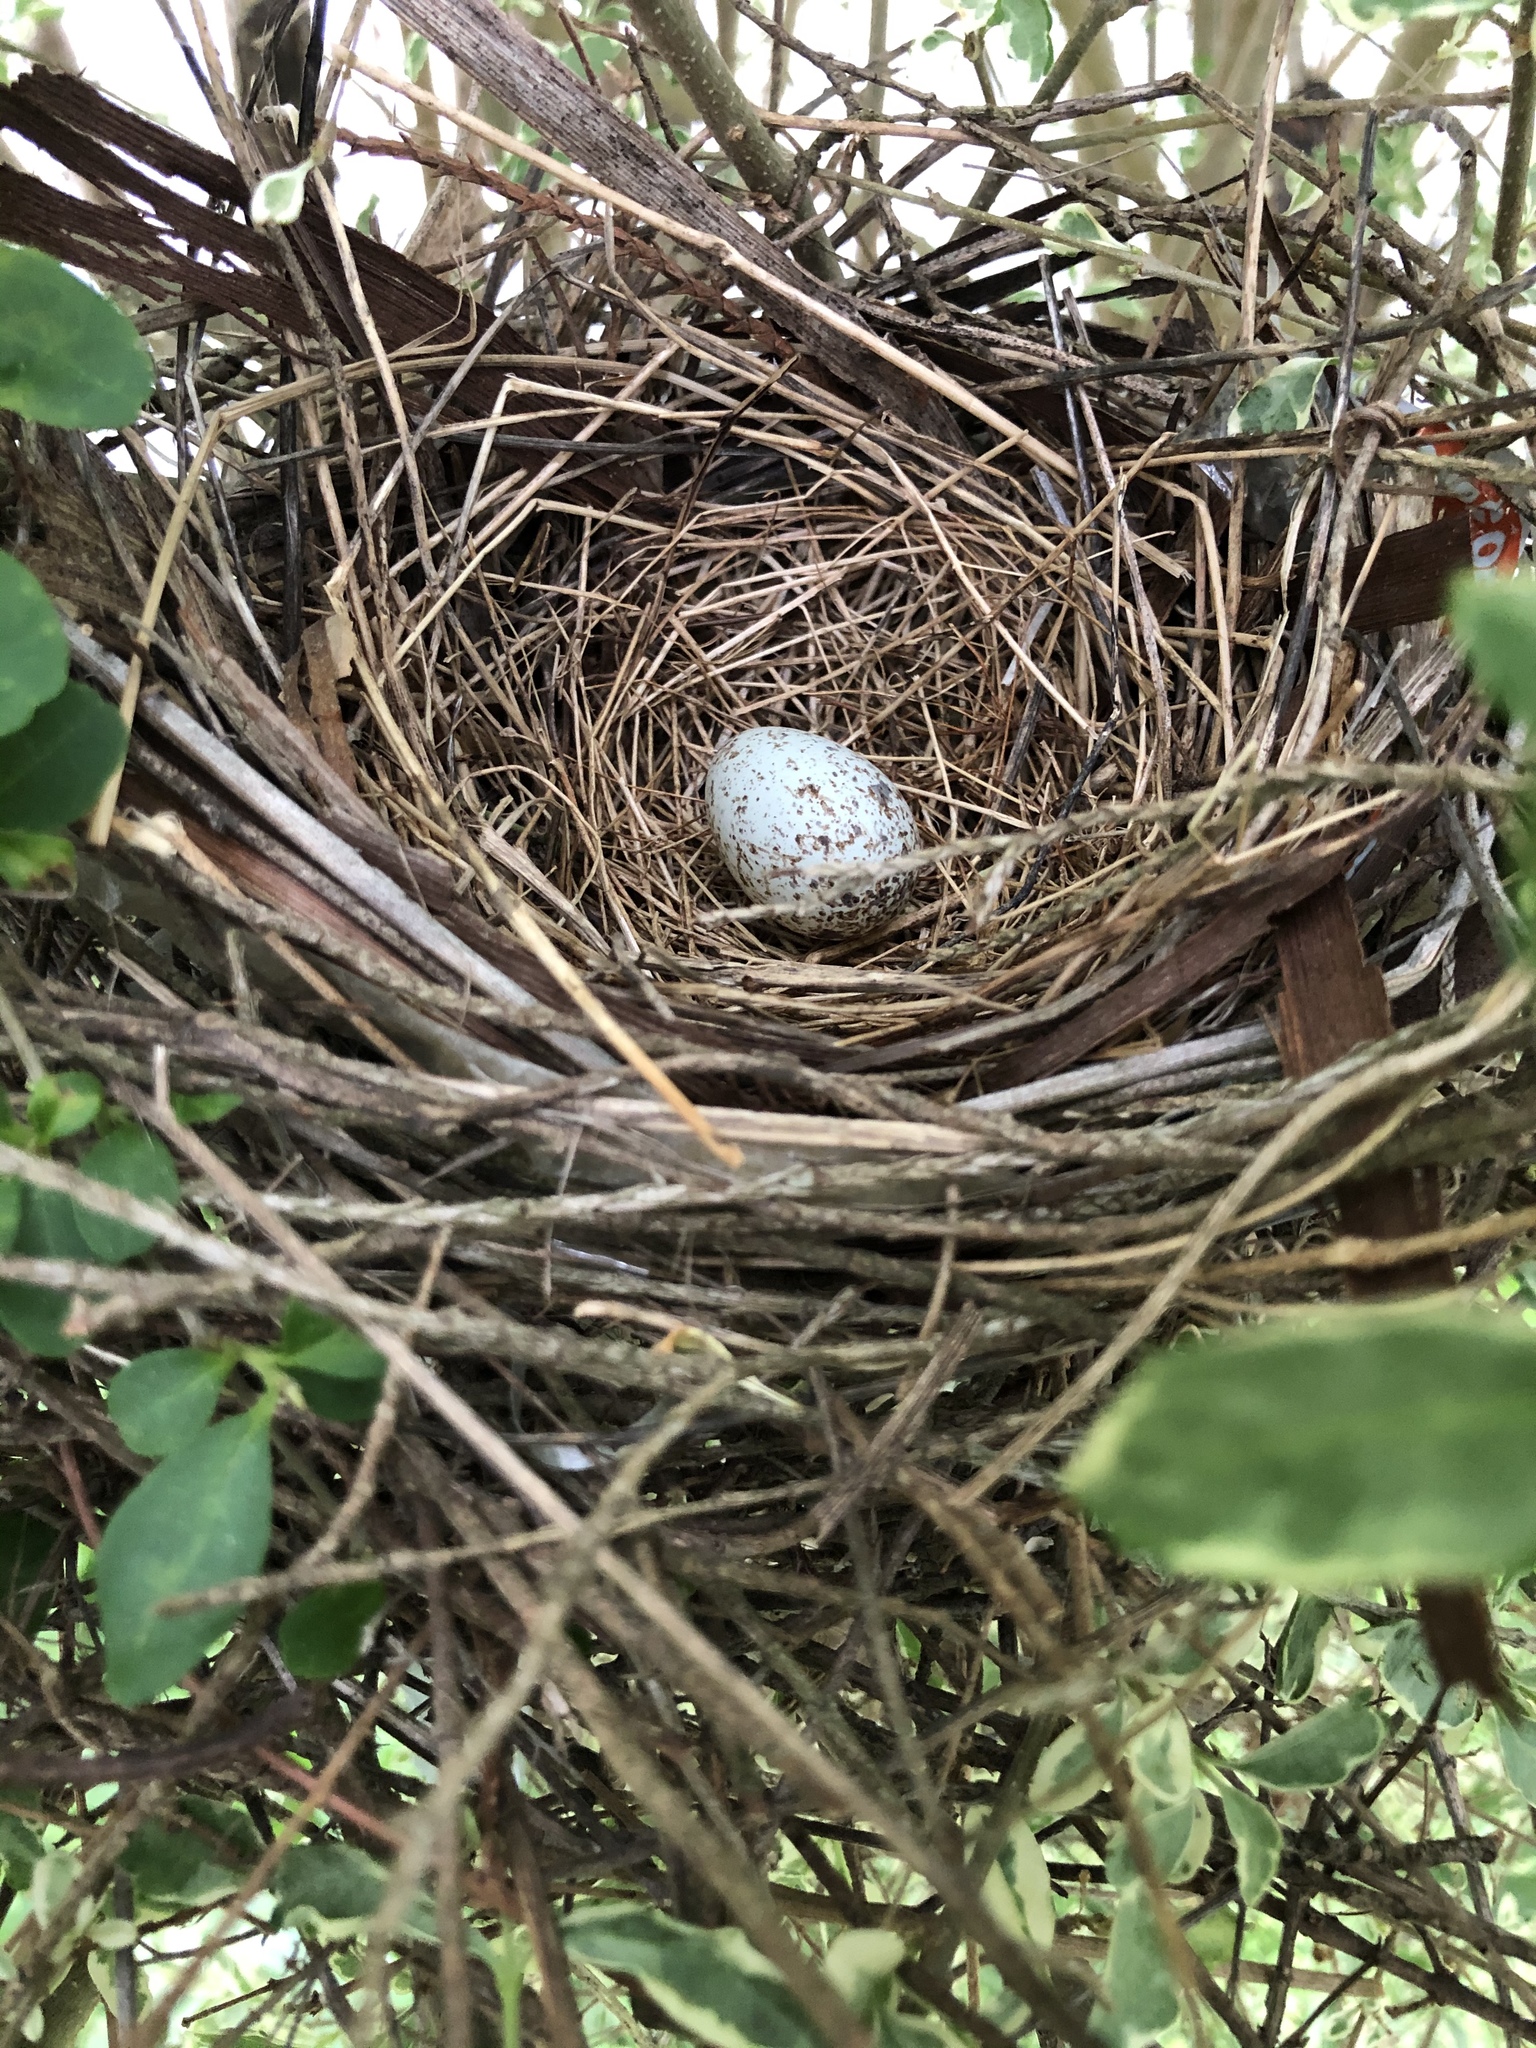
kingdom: Animalia
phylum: Chordata
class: Aves
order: Passeriformes
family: Cardinalidae
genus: Cardinalis
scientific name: Cardinalis cardinalis
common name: Northern cardinal
